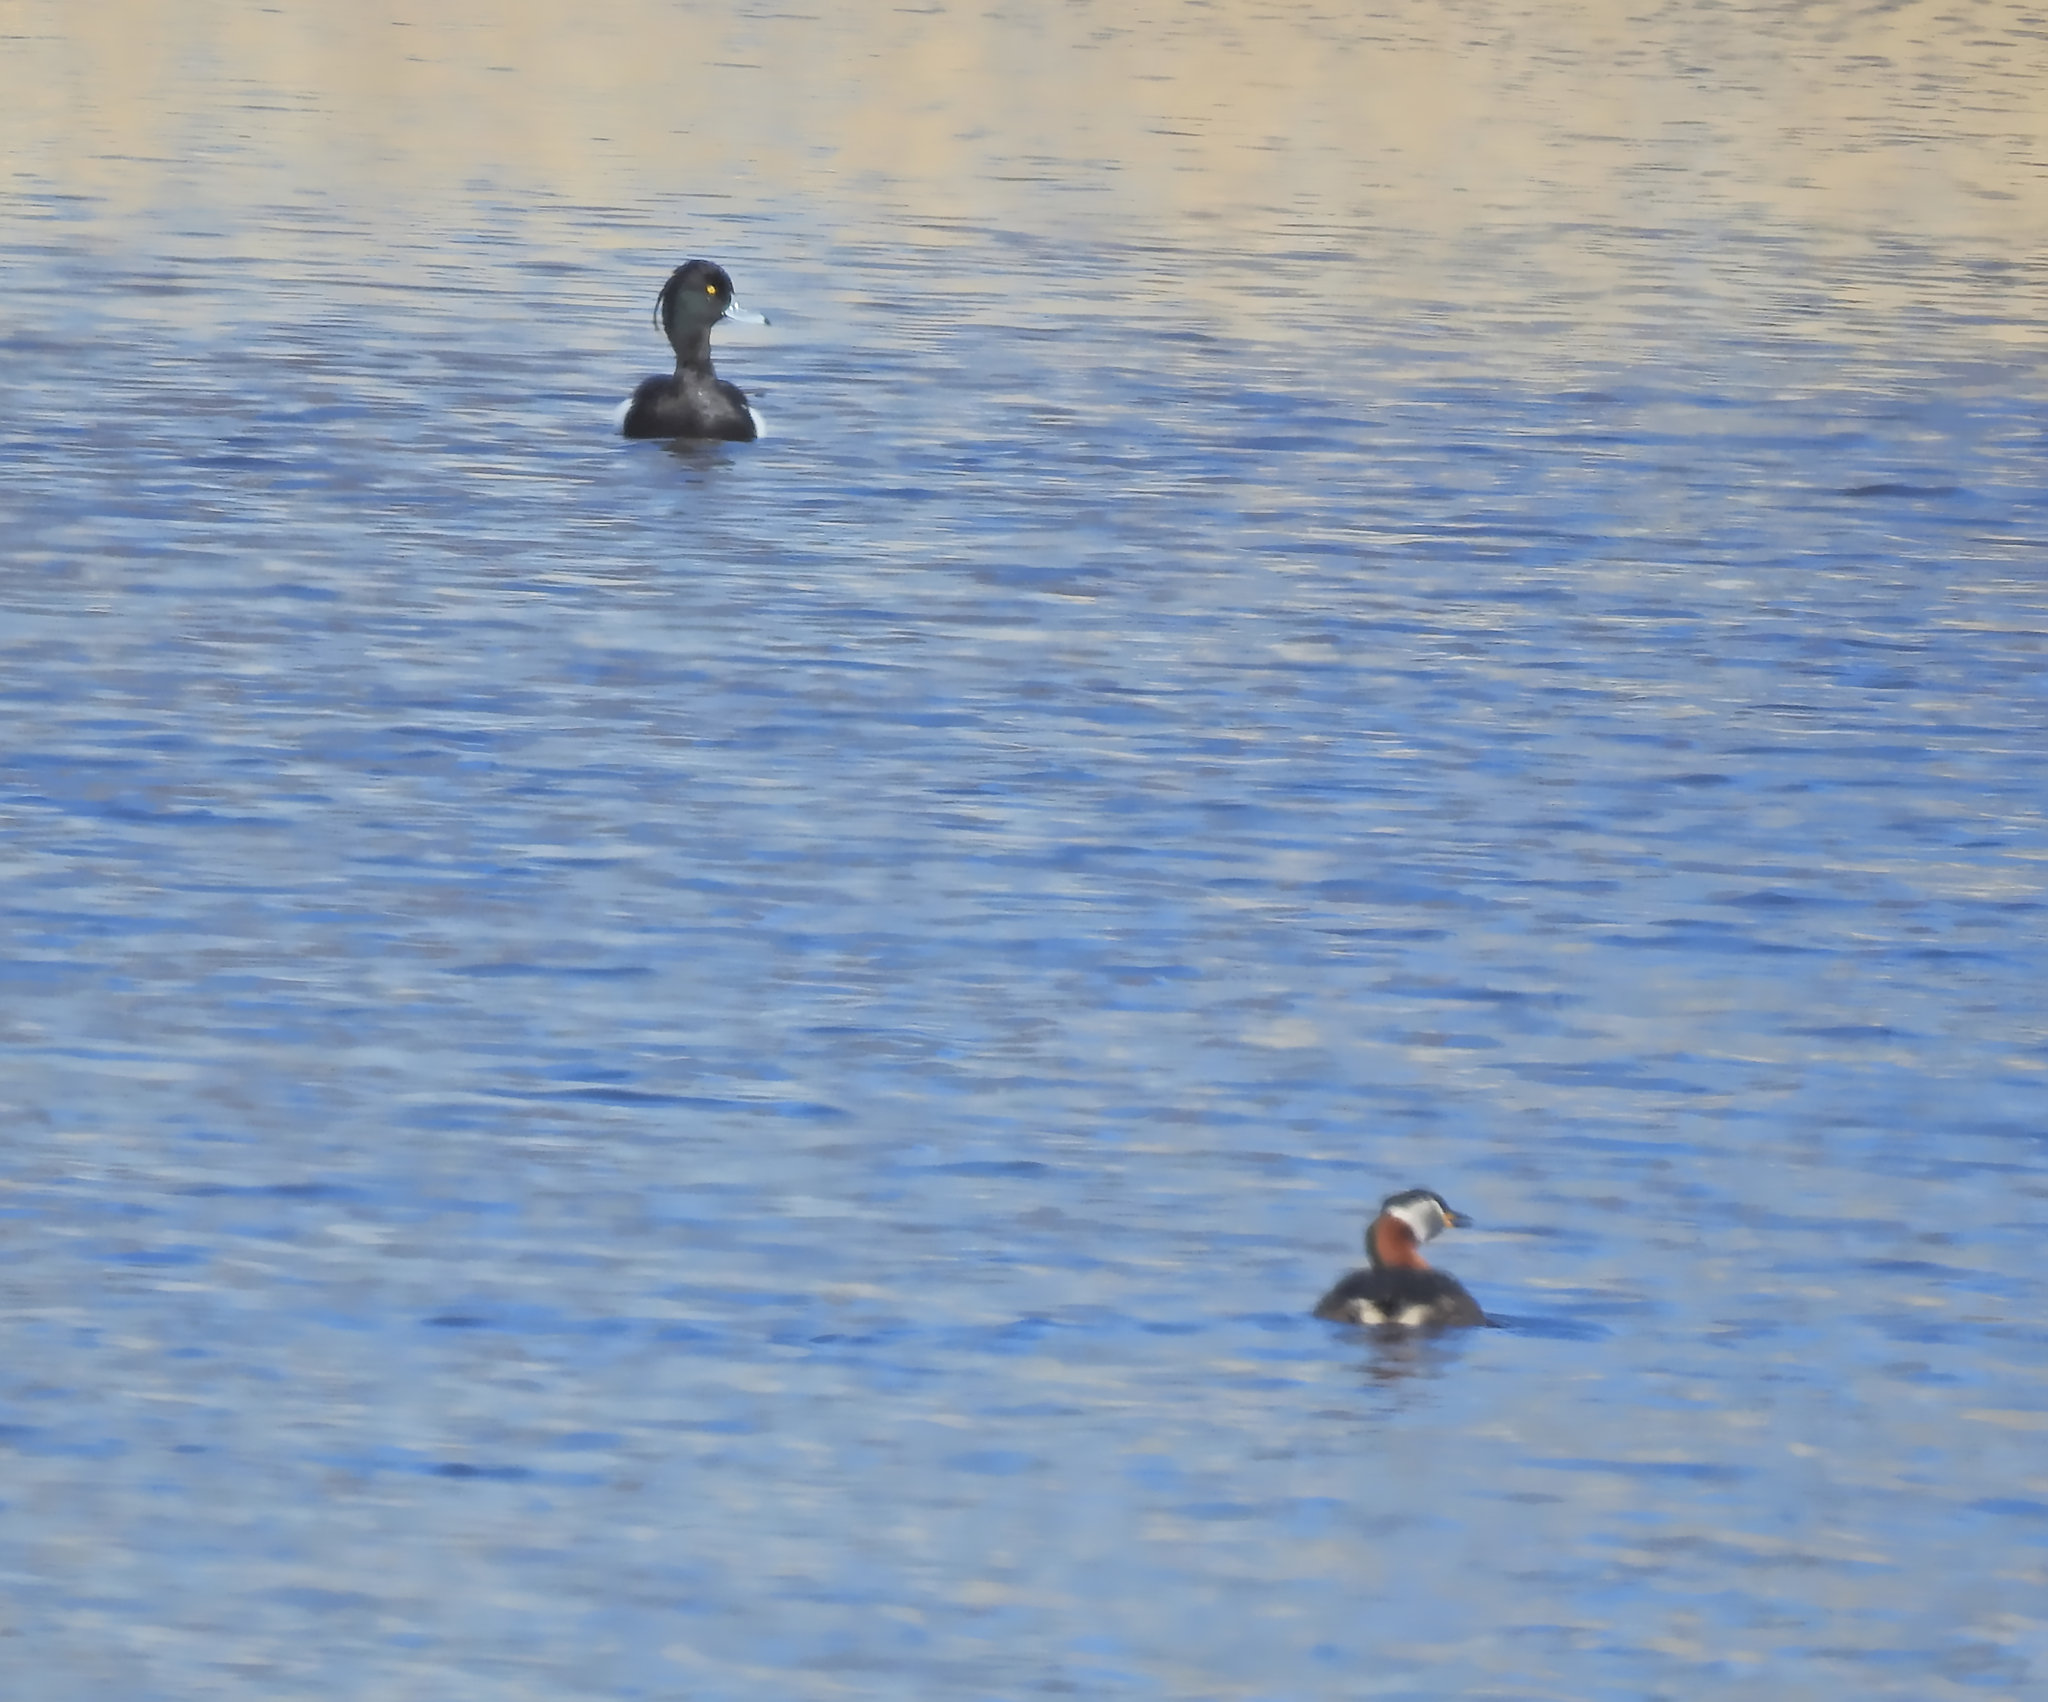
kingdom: Animalia
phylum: Chordata
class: Aves
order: Anseriformes
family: Anatidae
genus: Aythya
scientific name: Aythya fuligula
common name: Tufted duck
